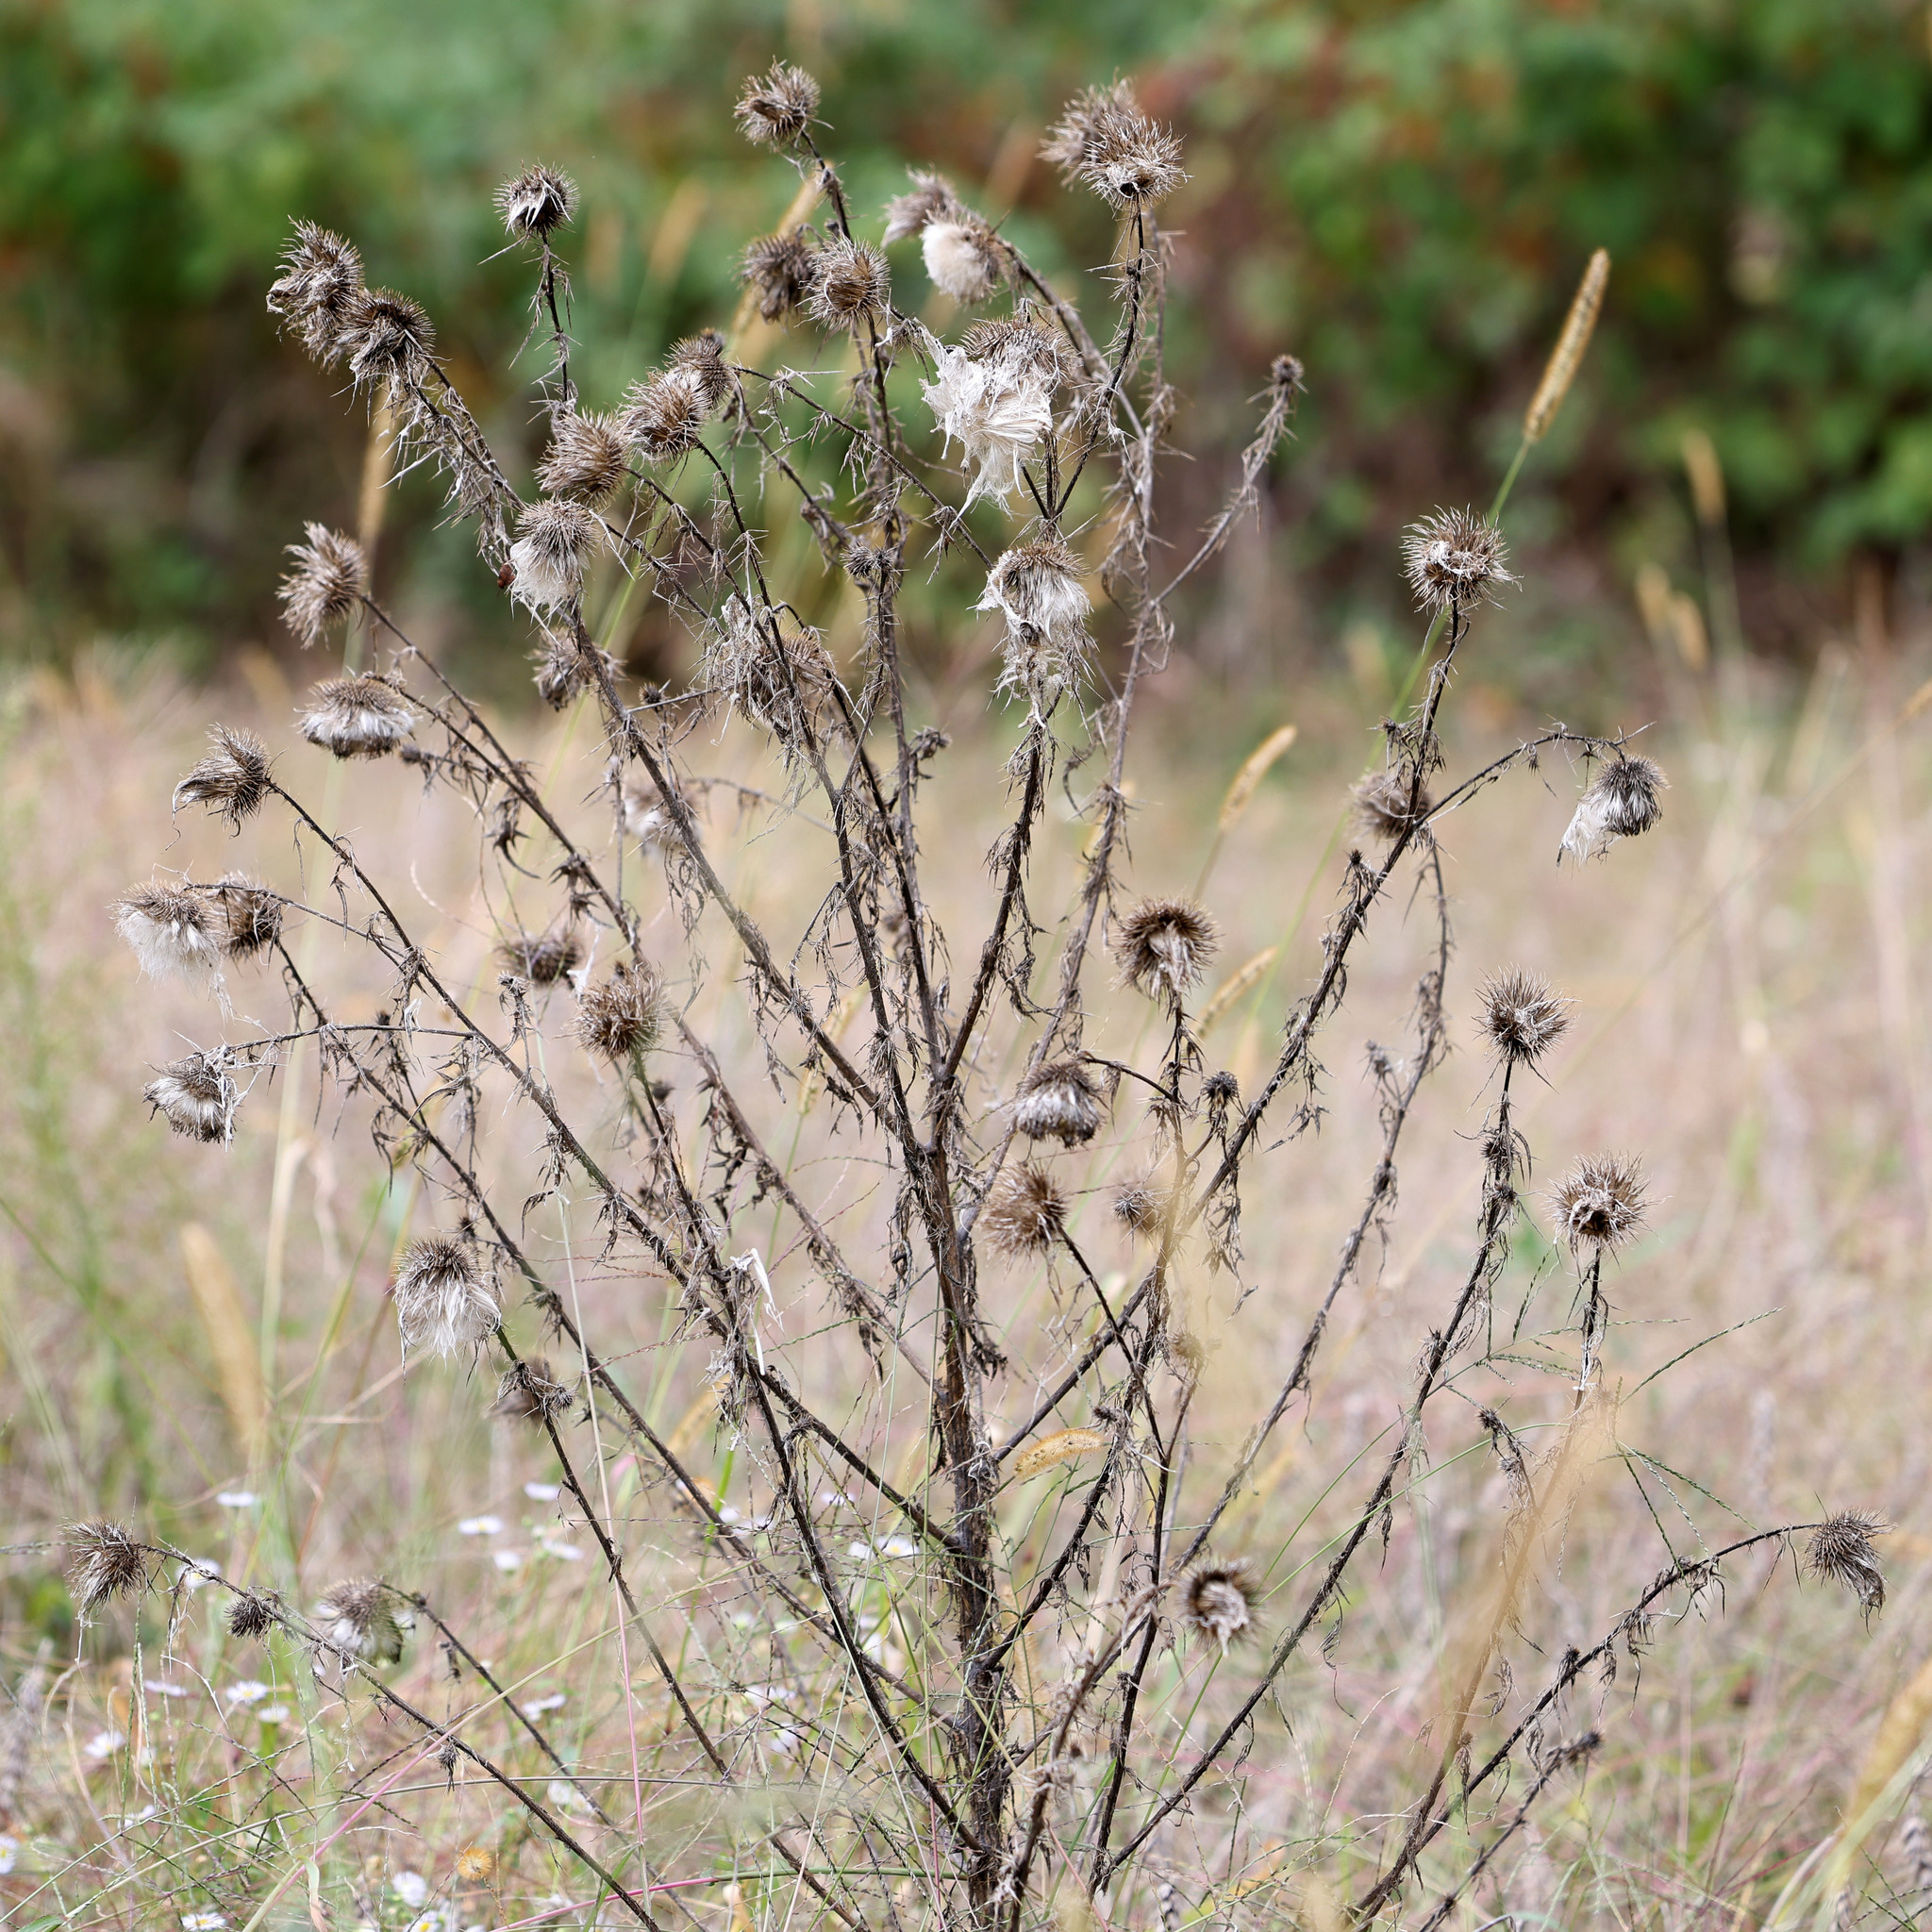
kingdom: Plantae
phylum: Tracheophyta
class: Magnoliopsida
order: Asterales
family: Asteraceae
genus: Cirsium
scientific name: Cirsium vulgare
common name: Bull thistle
